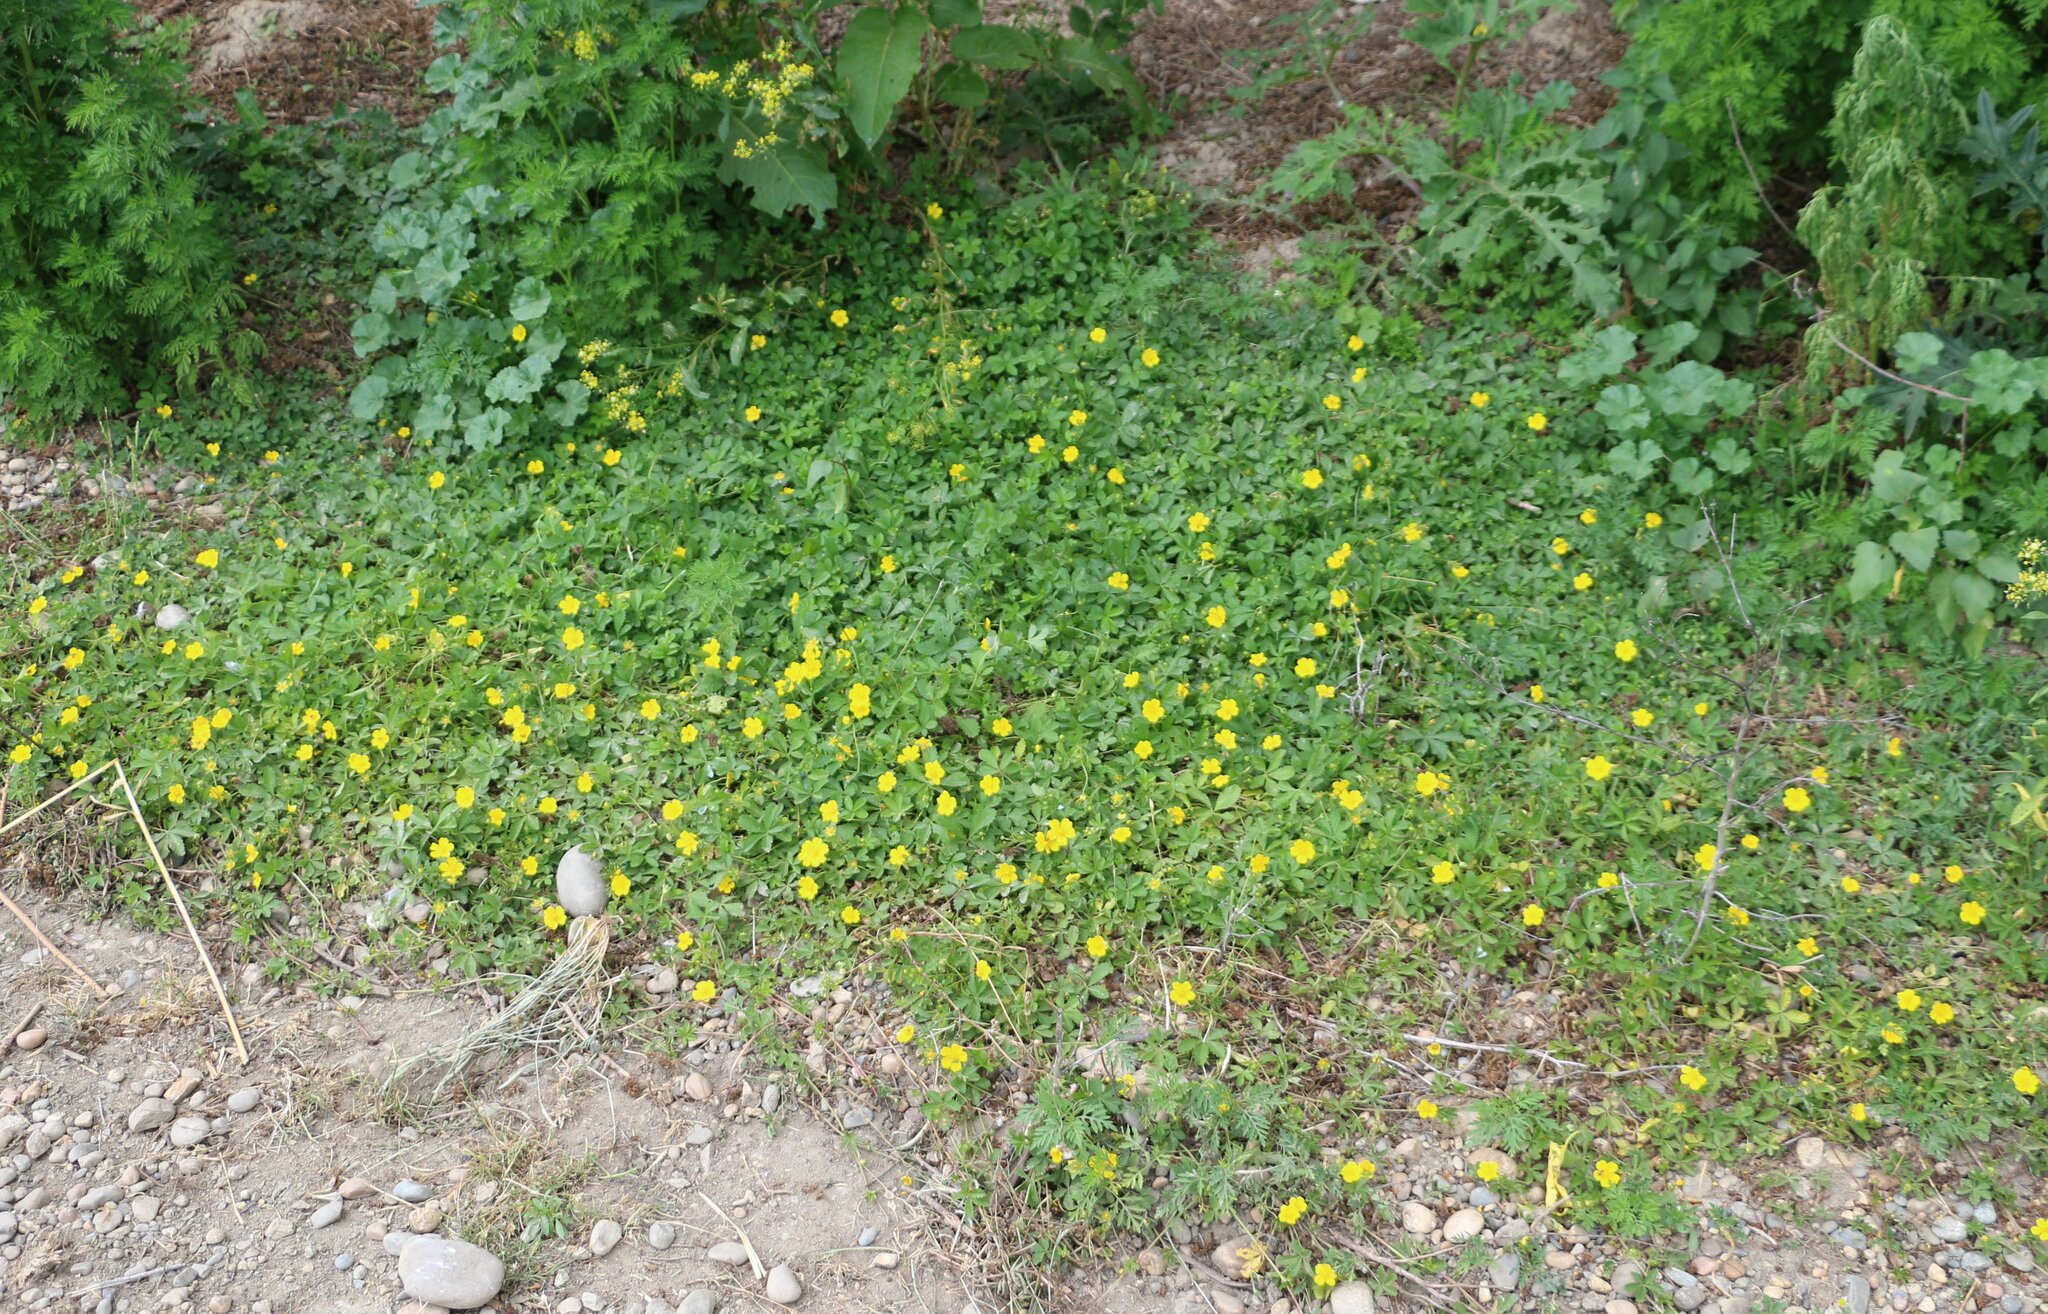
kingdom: Plantae
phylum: Tracheophyta
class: Magnoliopsida
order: Rosales
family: Rosaceae
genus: Potentilla
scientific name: Potentilla reptans
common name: Creeping cinquefoil
